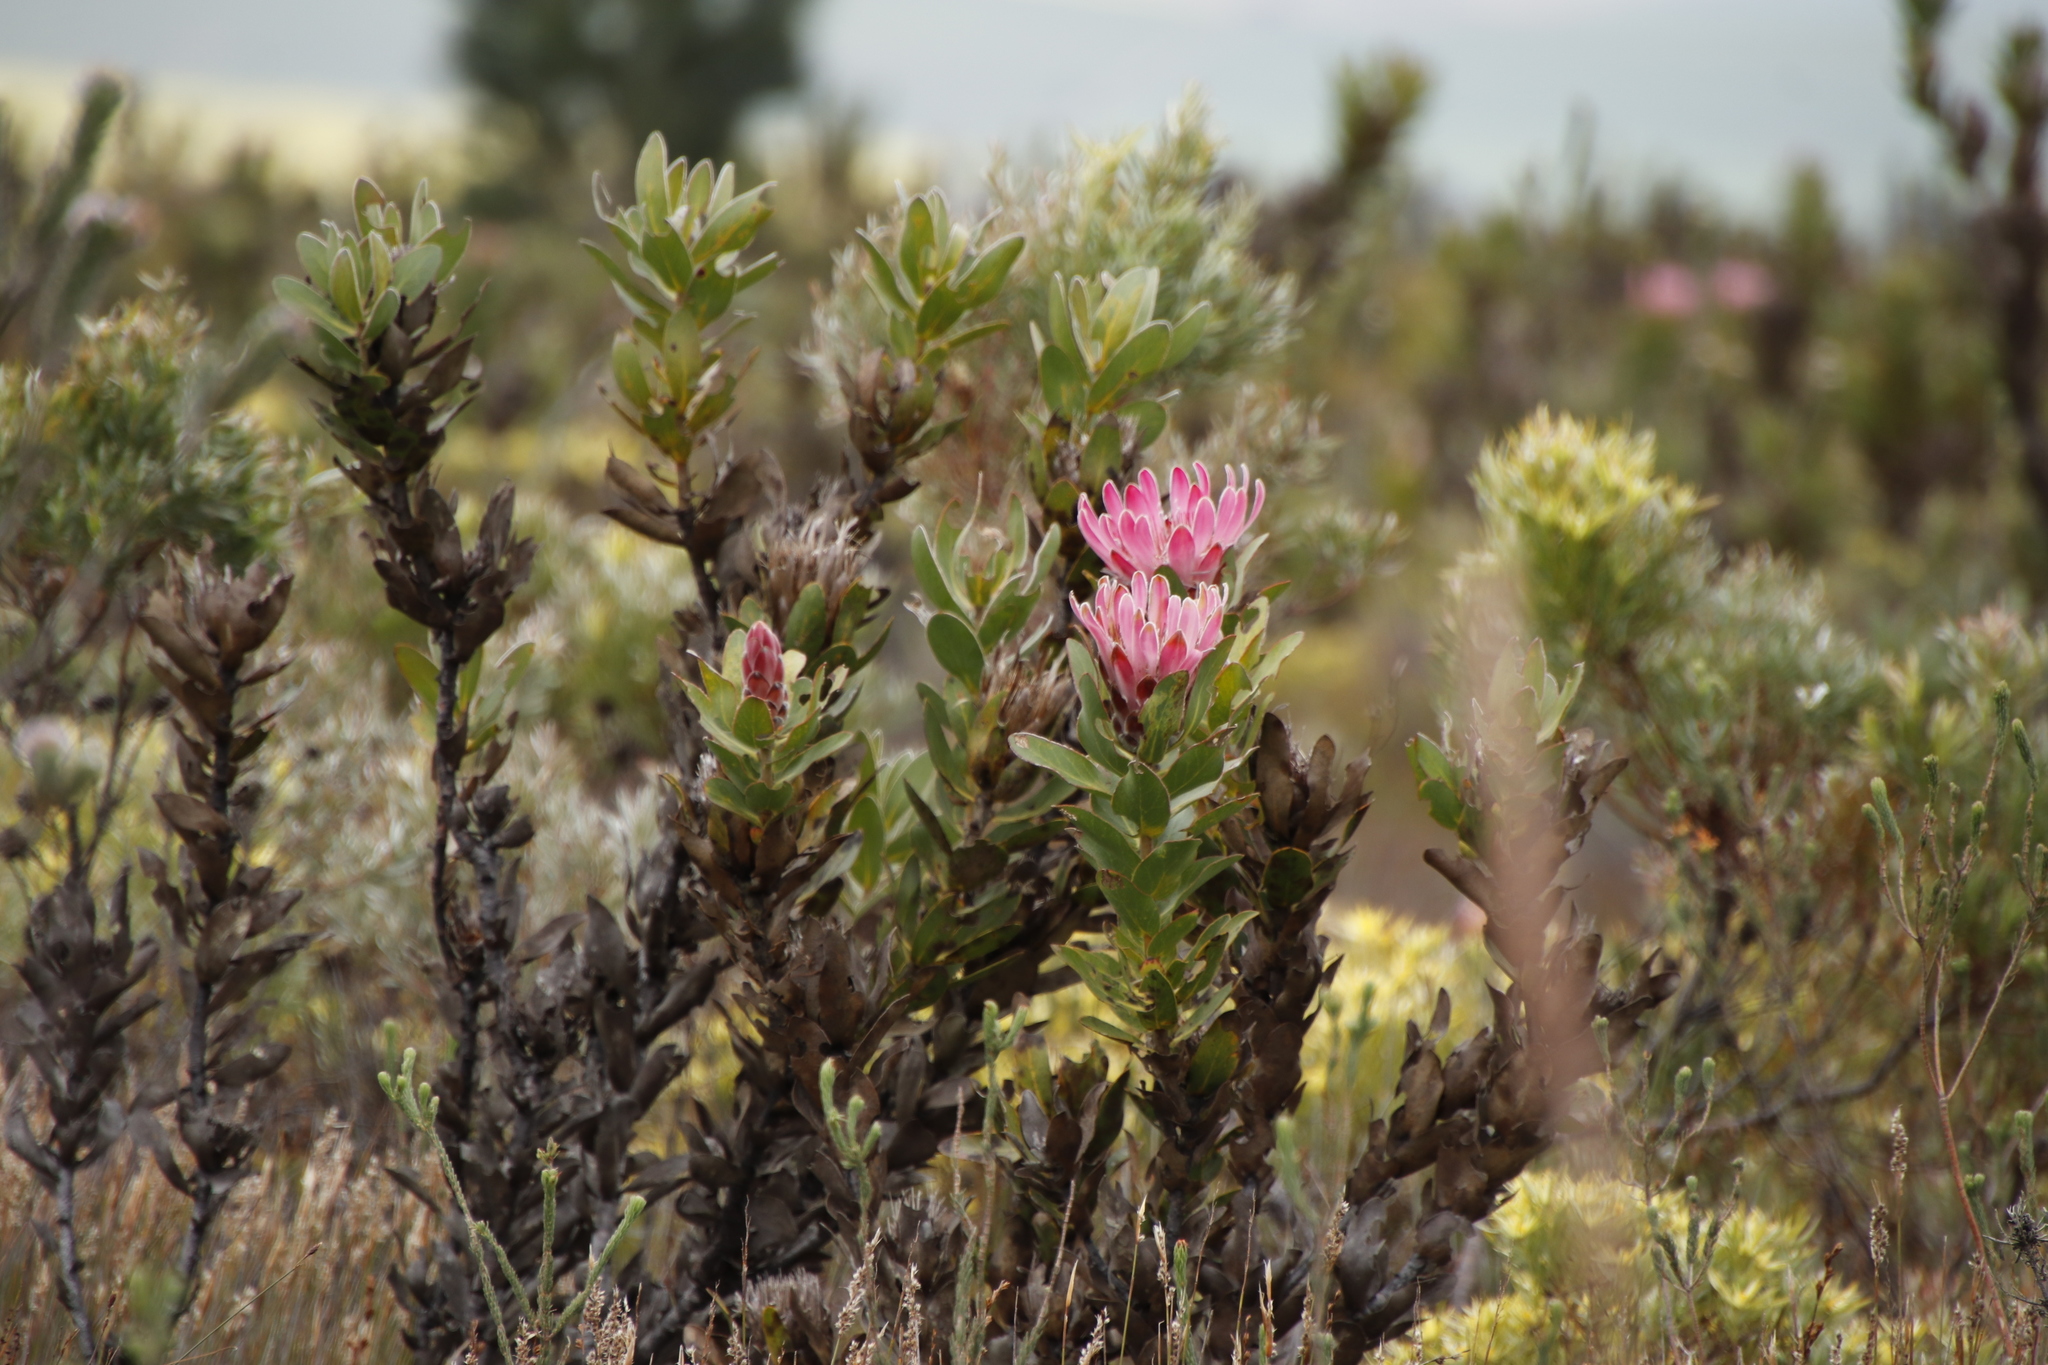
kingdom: Plantae
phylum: Tracheophyta
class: Magnoliopsida
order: Proteales
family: Proteaceae
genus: Protea
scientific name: Protea compacta
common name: Bot river protea
